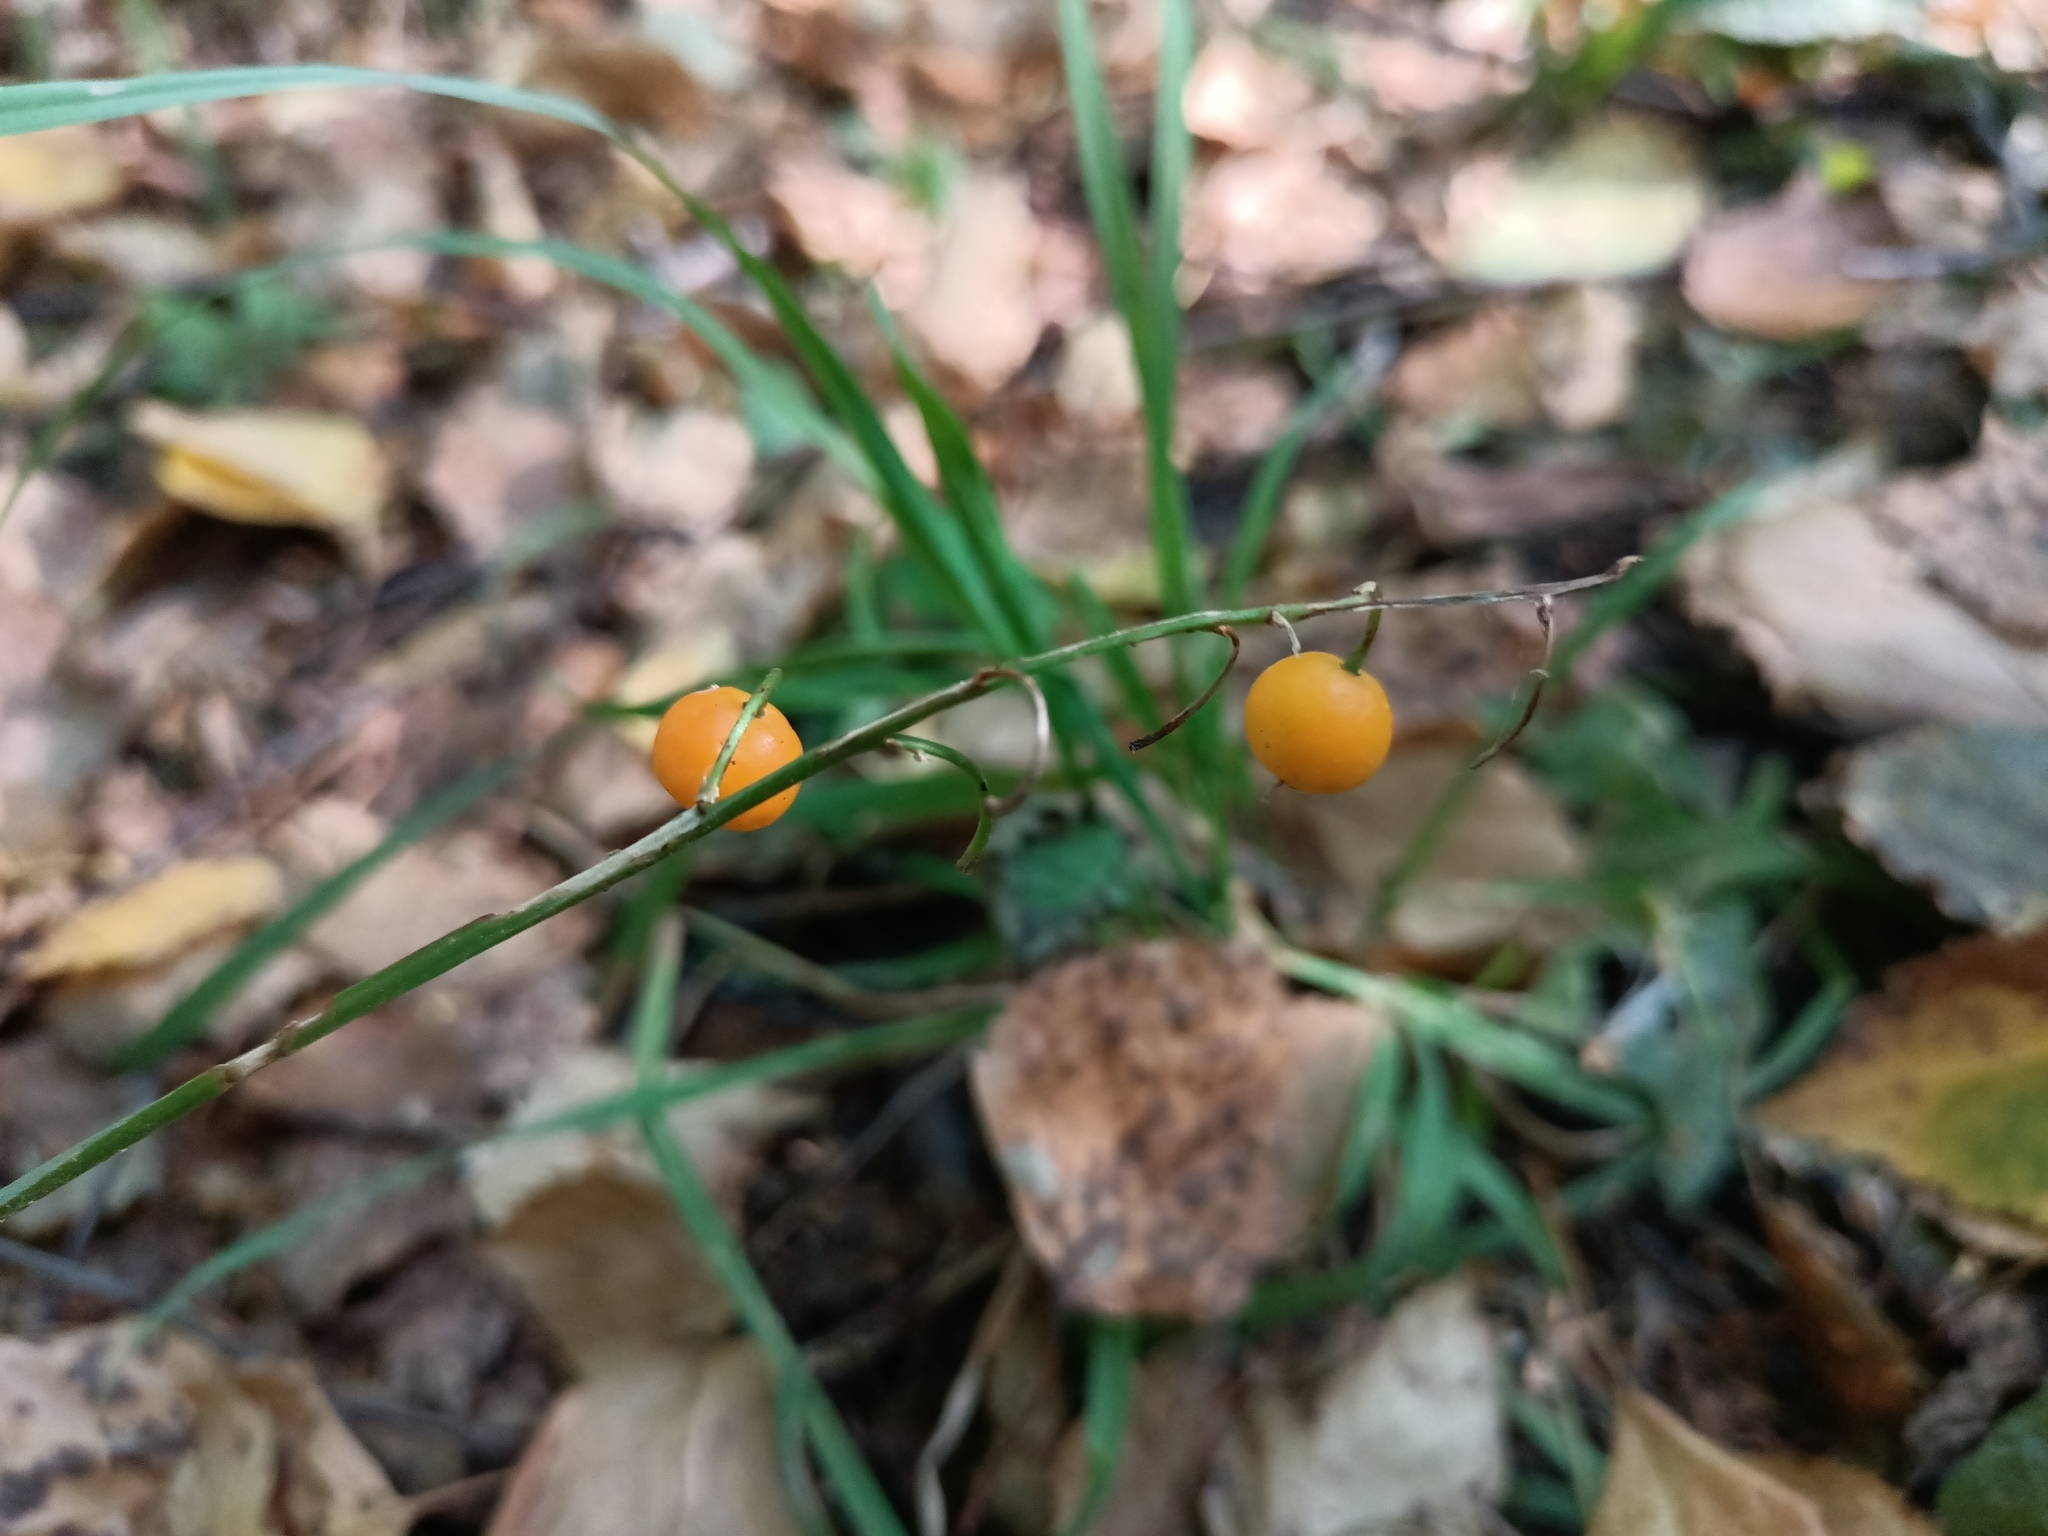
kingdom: Plantae
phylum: Tracheophyta
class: Liliopsida
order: Asparagales
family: Asparagaceae
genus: Convallaria
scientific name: Convallaria majalis
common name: Lily-of-the-valley
